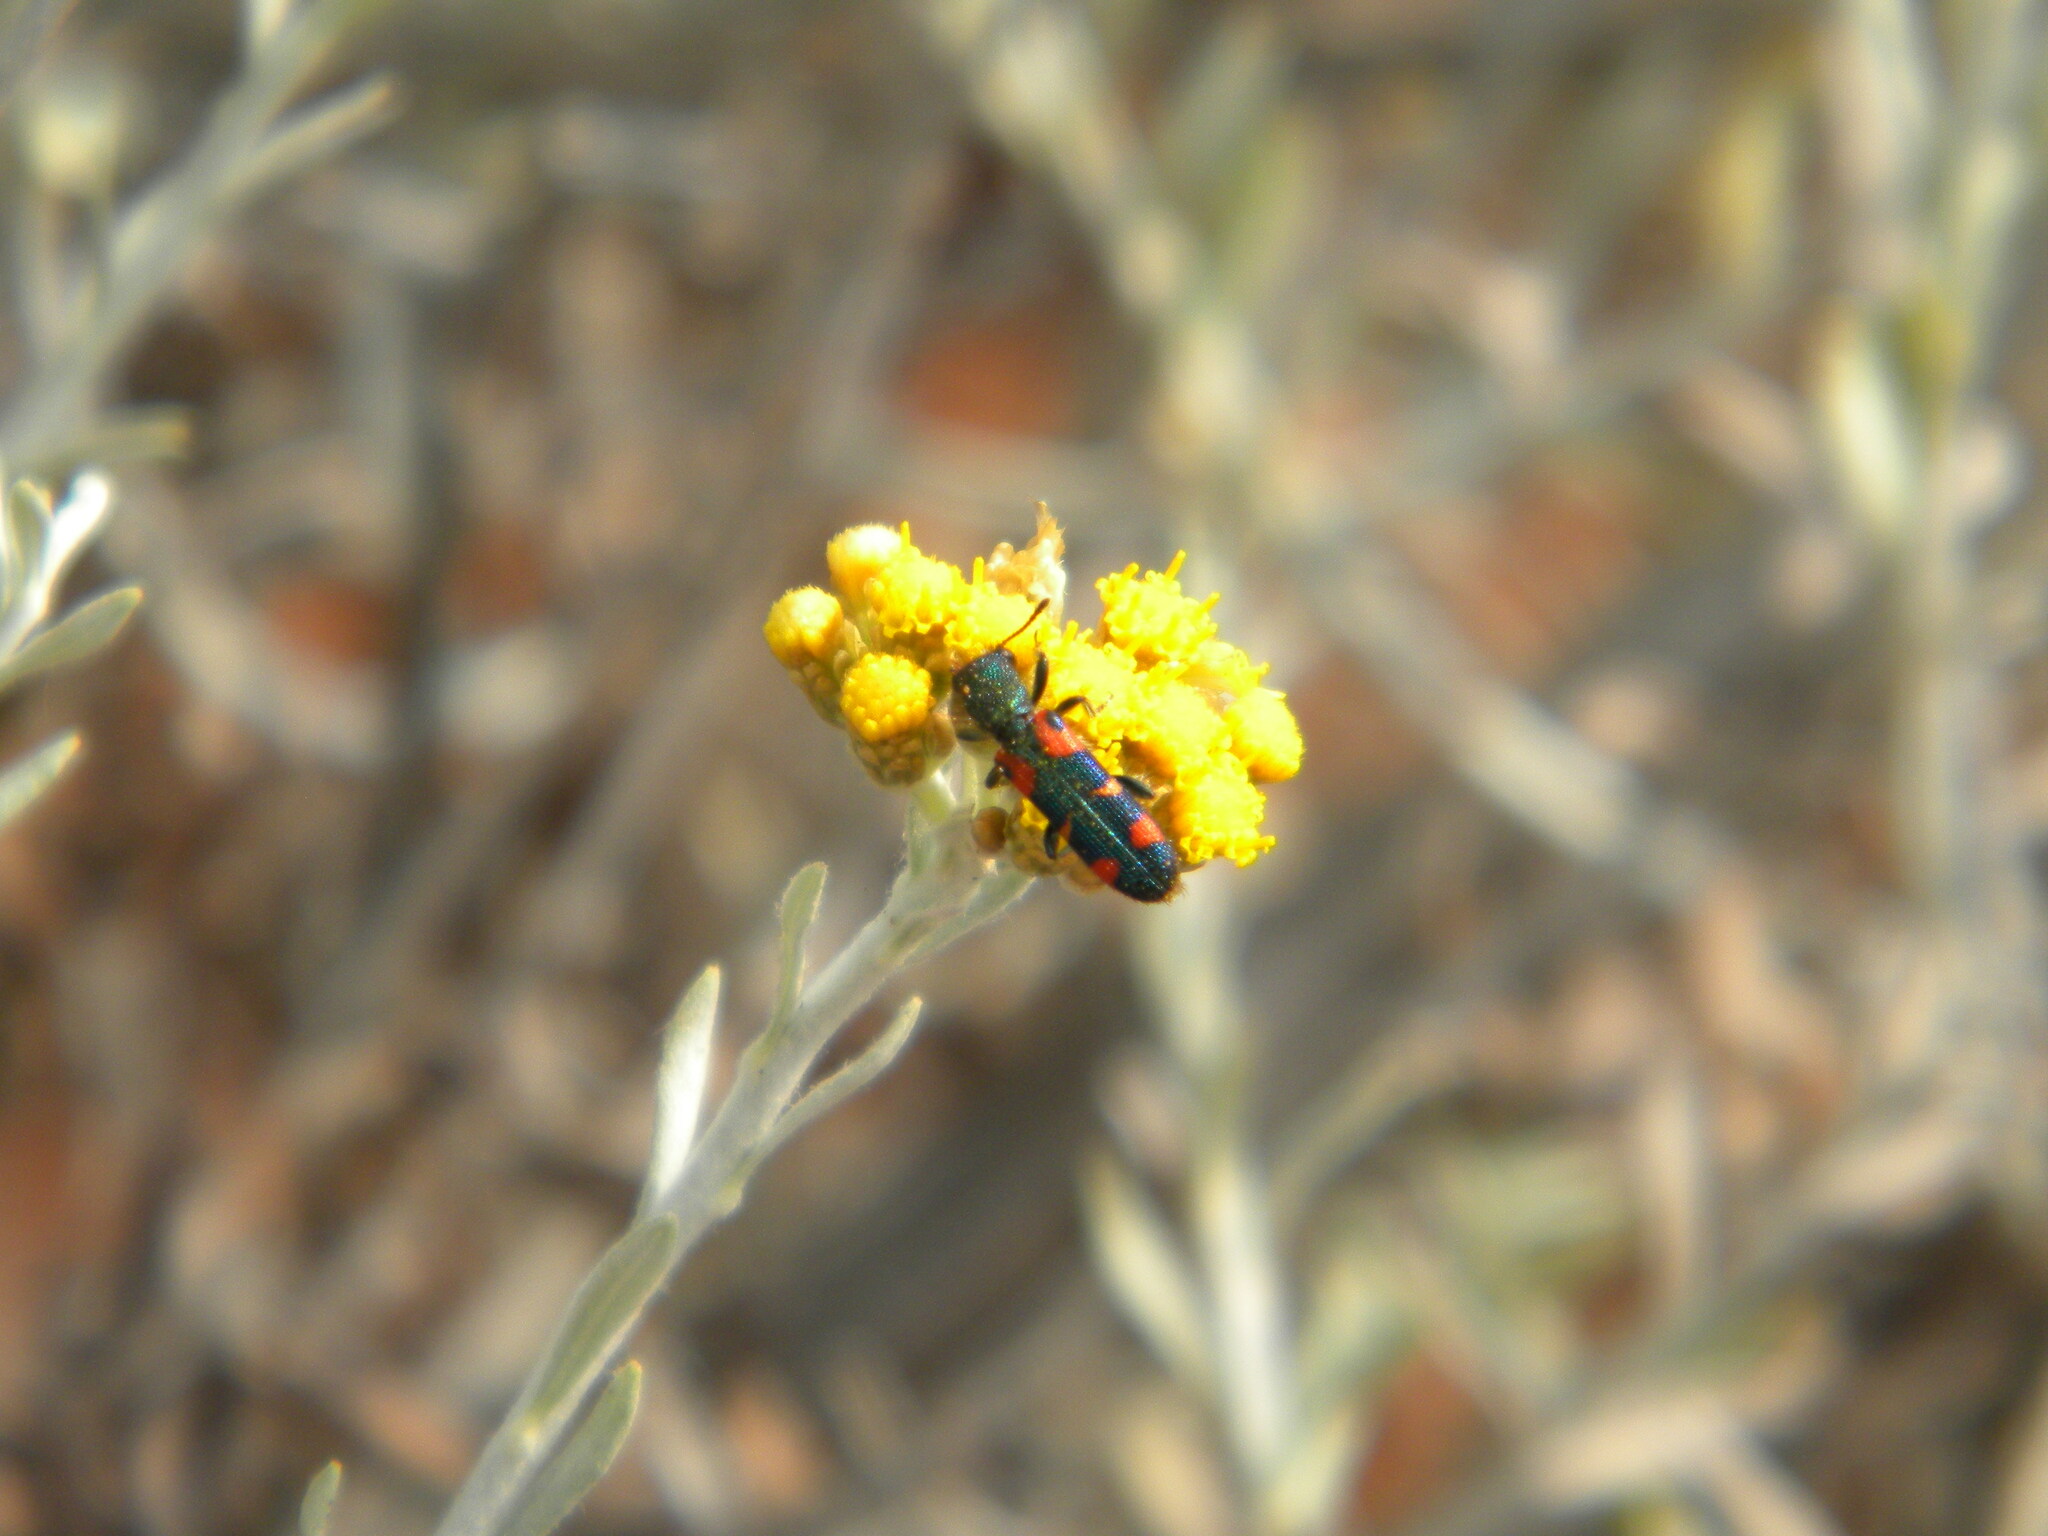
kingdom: Animalia
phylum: Arthropoda
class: Insecta
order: Coleoptera
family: Cleridae
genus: Trichodes
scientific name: Trichodes aulicus
